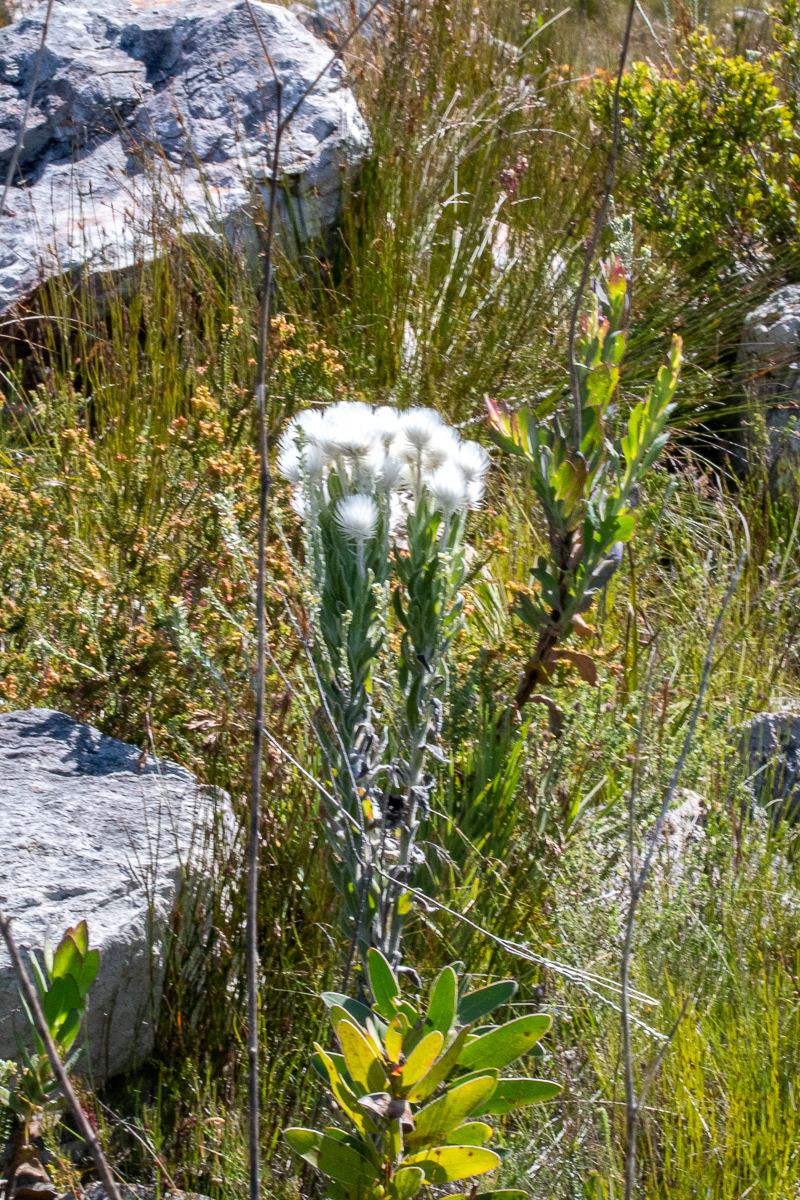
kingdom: Plantae
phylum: Tracheophyta
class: Magnoliopsida
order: Asterales
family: Asteraceae
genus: Syncarpha
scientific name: Syncarpha vestita
